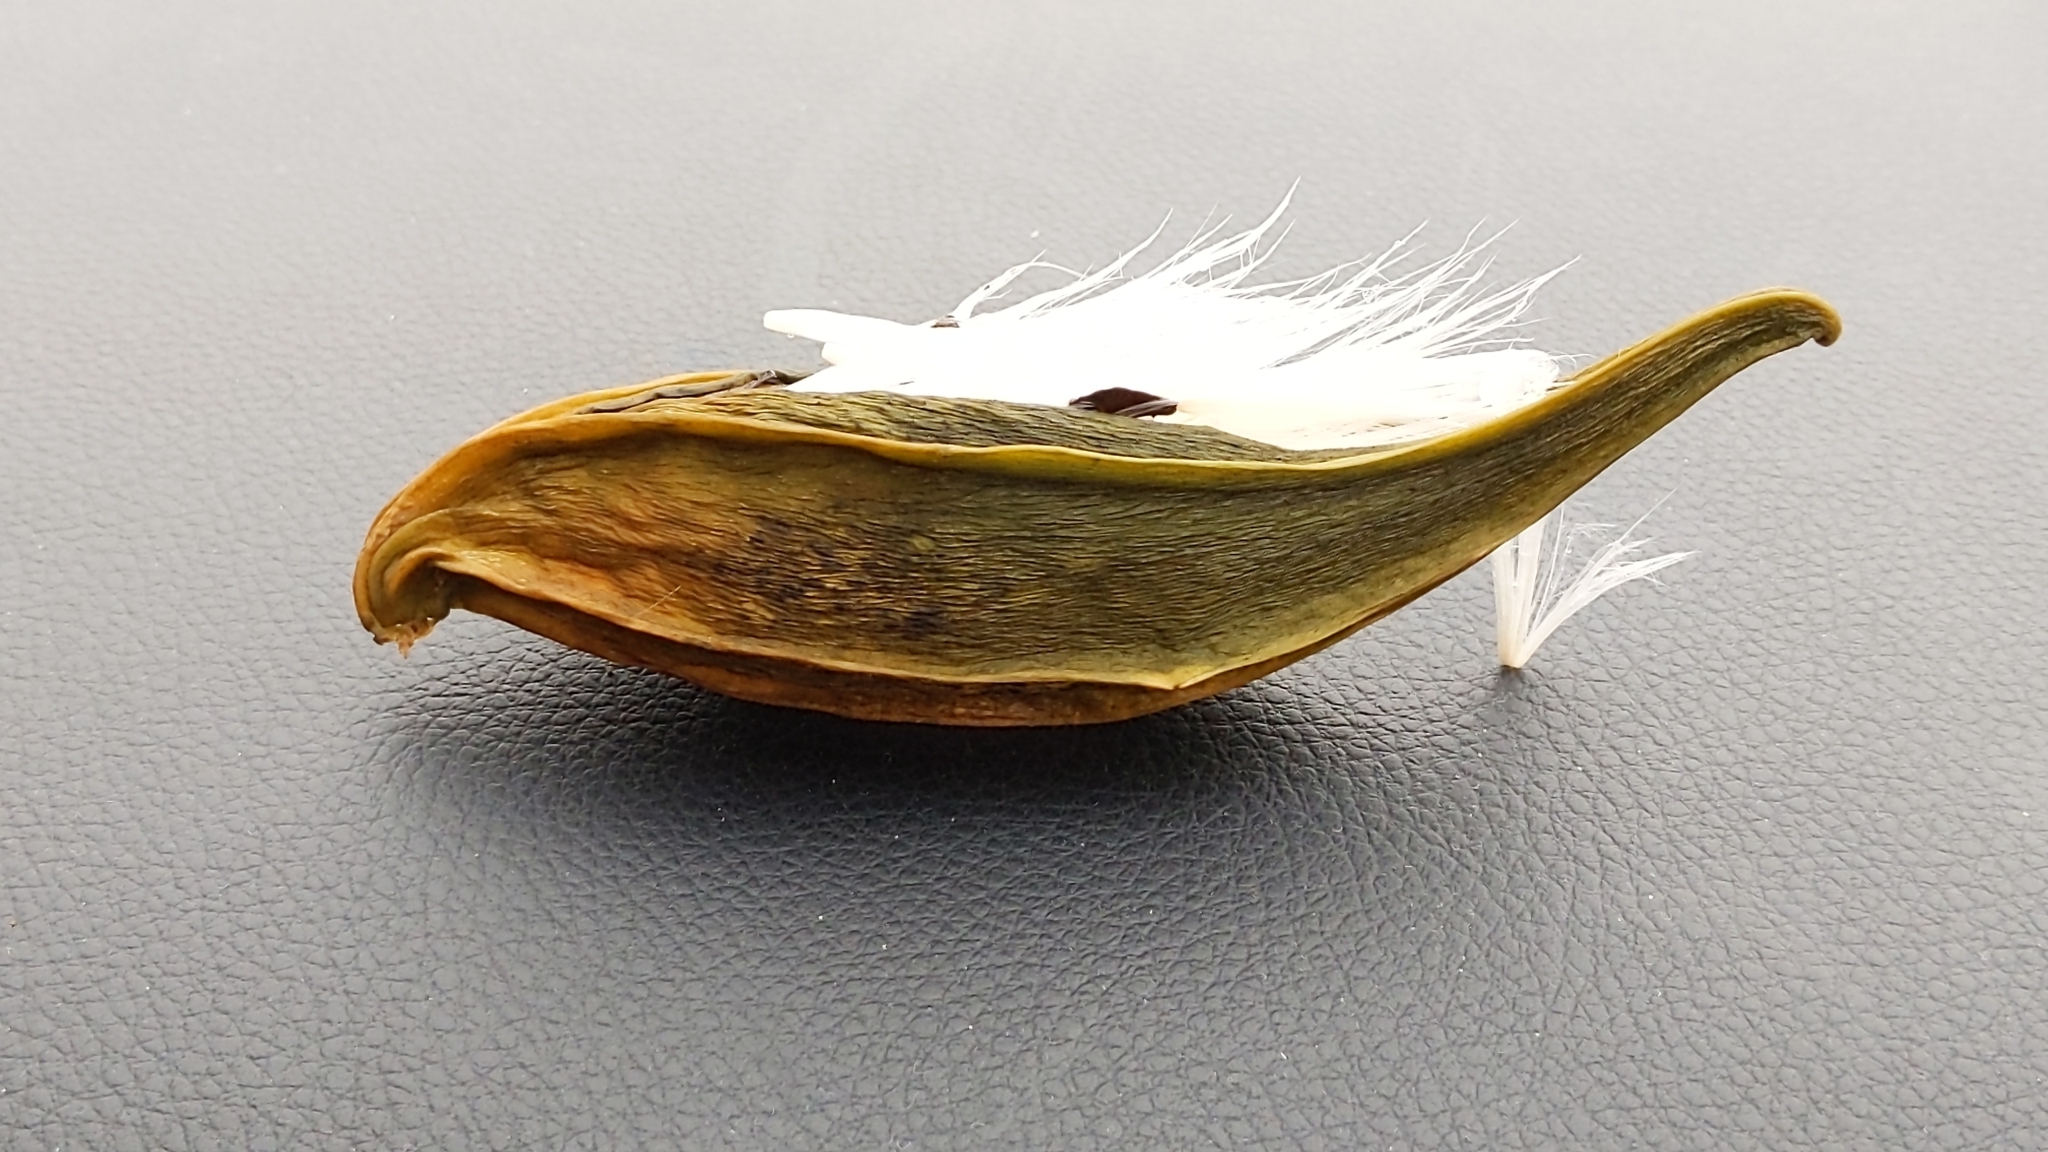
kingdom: Plantae
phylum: Tracheophyta
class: Magnoliopsida
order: Gentianales
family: Apocynaceae
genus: Gonolobus
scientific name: Gonolobus suberosus
